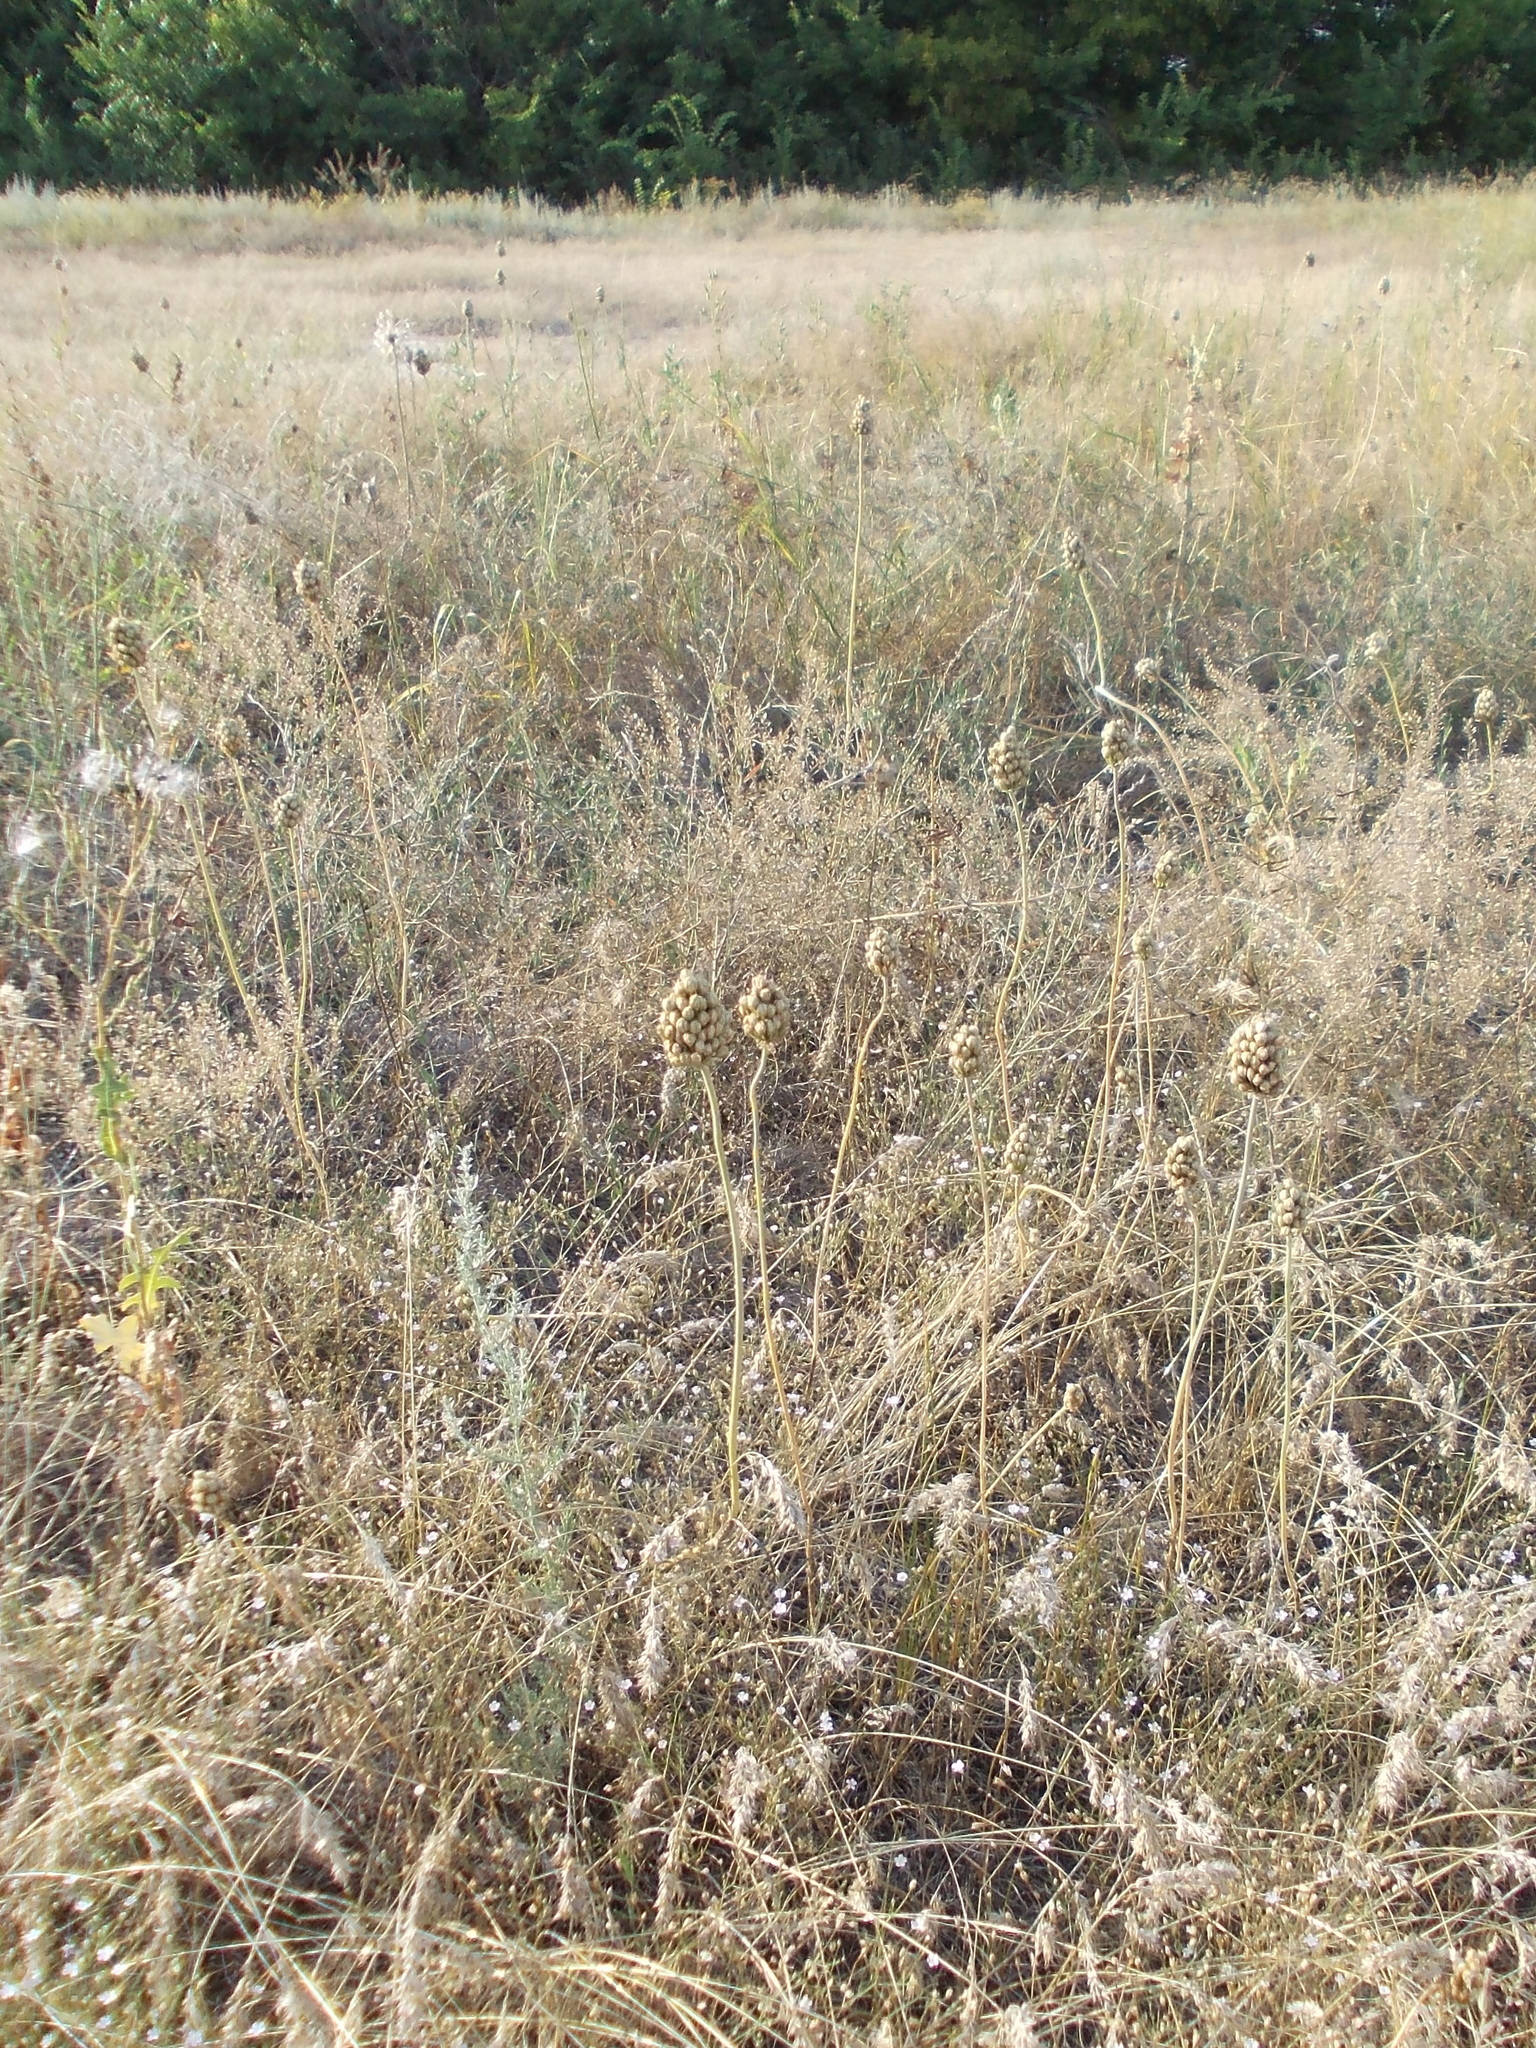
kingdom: Plantae
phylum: Tracheophyta
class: Liliopsida
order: Asparagales
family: Amaryllidaceae
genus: Allium
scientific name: Allium regelianum
